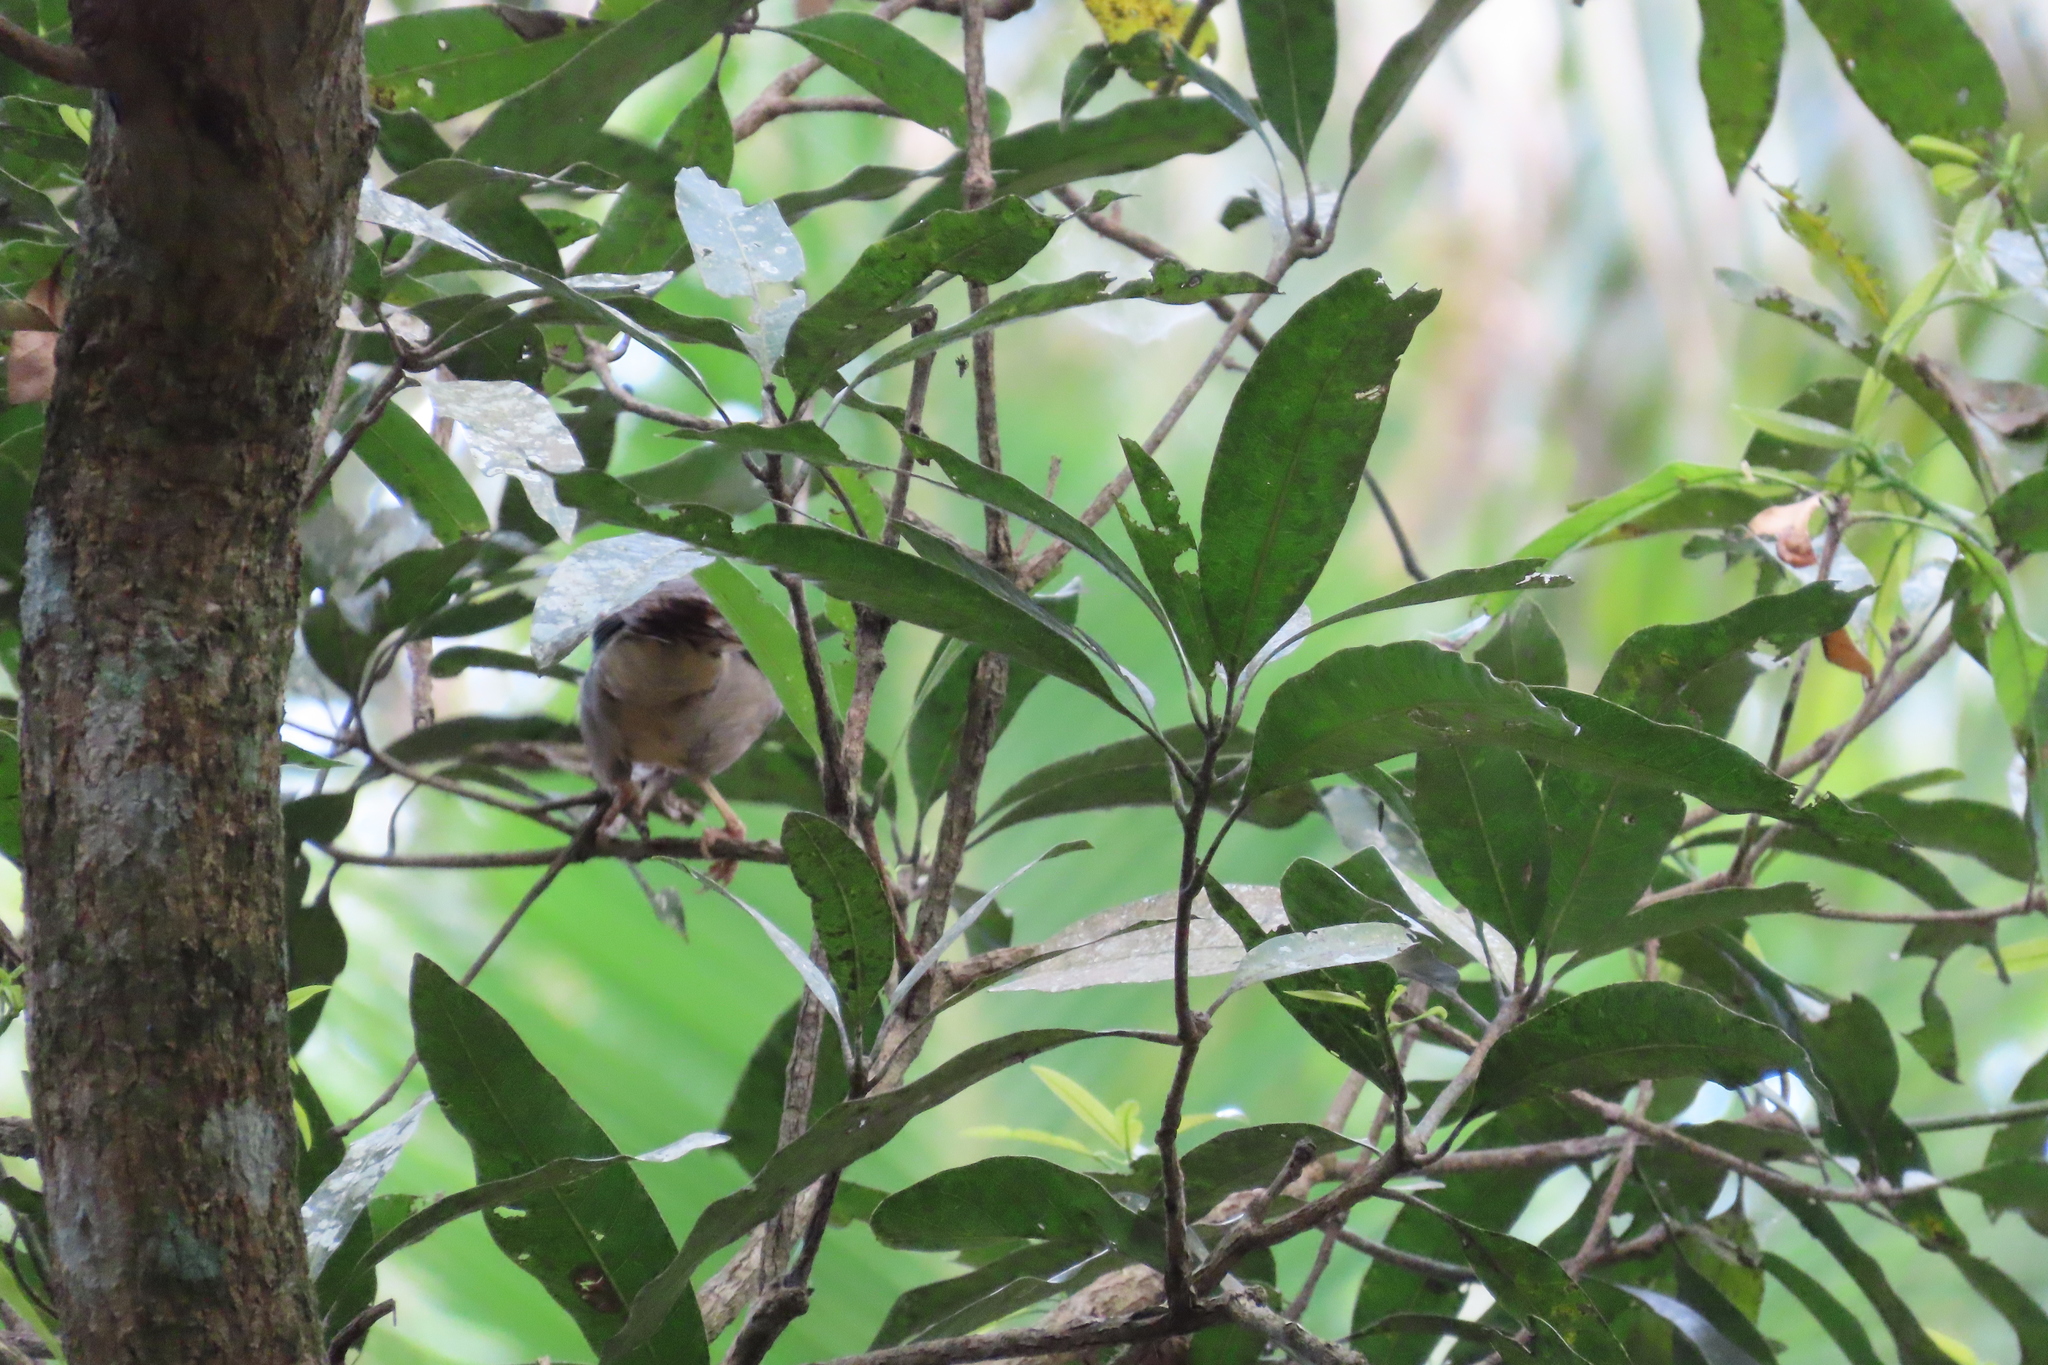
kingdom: Animalia
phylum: Chordata
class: Aves
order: Passeriformes
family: Leiothrichidae
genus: Turdoides
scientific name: Turdoides striata
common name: Jungle babbler
